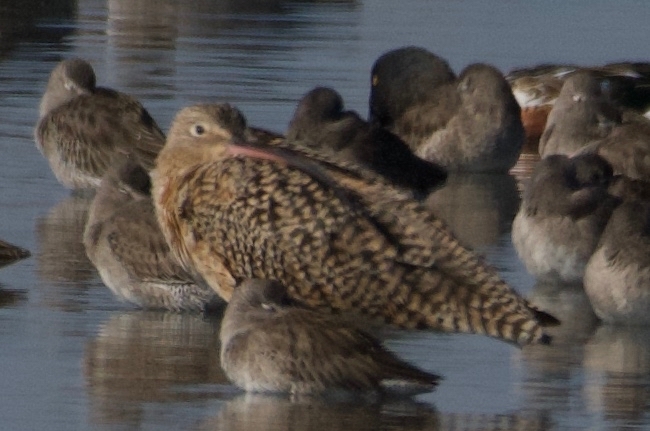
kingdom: Animalia
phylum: Chordata
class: Aves
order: Charadriiformes
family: Scolopacidae
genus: Limosa
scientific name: Limosa fedoa
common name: Marbled godwit
